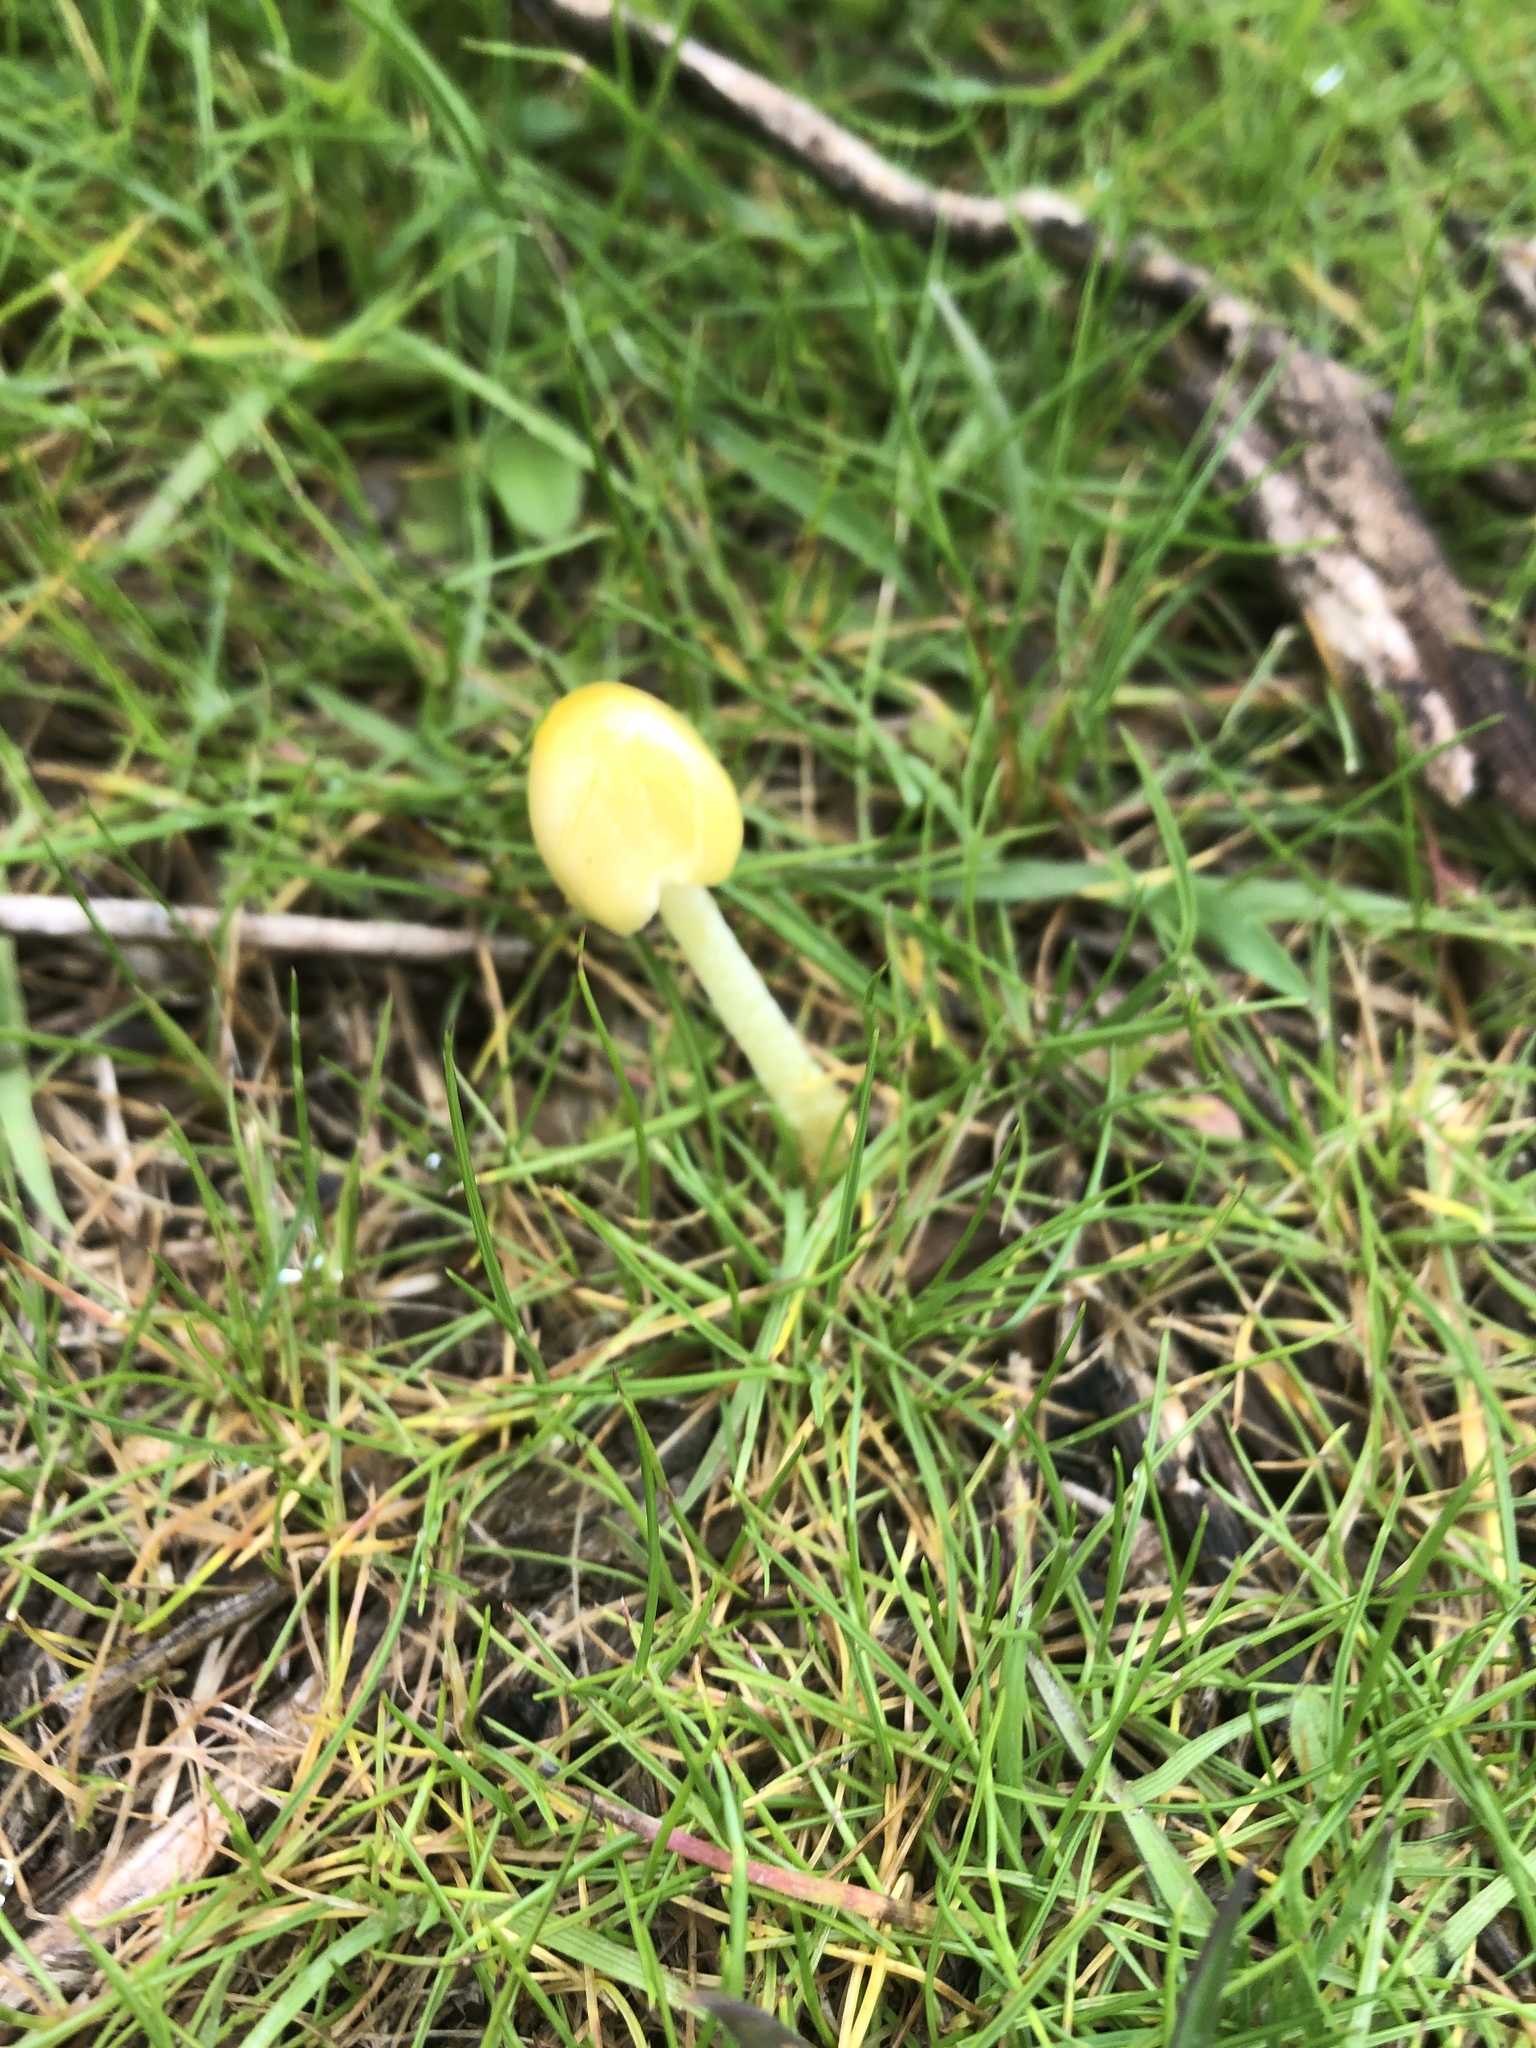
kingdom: Fungi
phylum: Basidiomycota
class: Agaricomycetes
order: Agaricales
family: Bolbitiaceae
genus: Bolbitius
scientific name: Bolbitius titubans
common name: Yellow fieldcap
